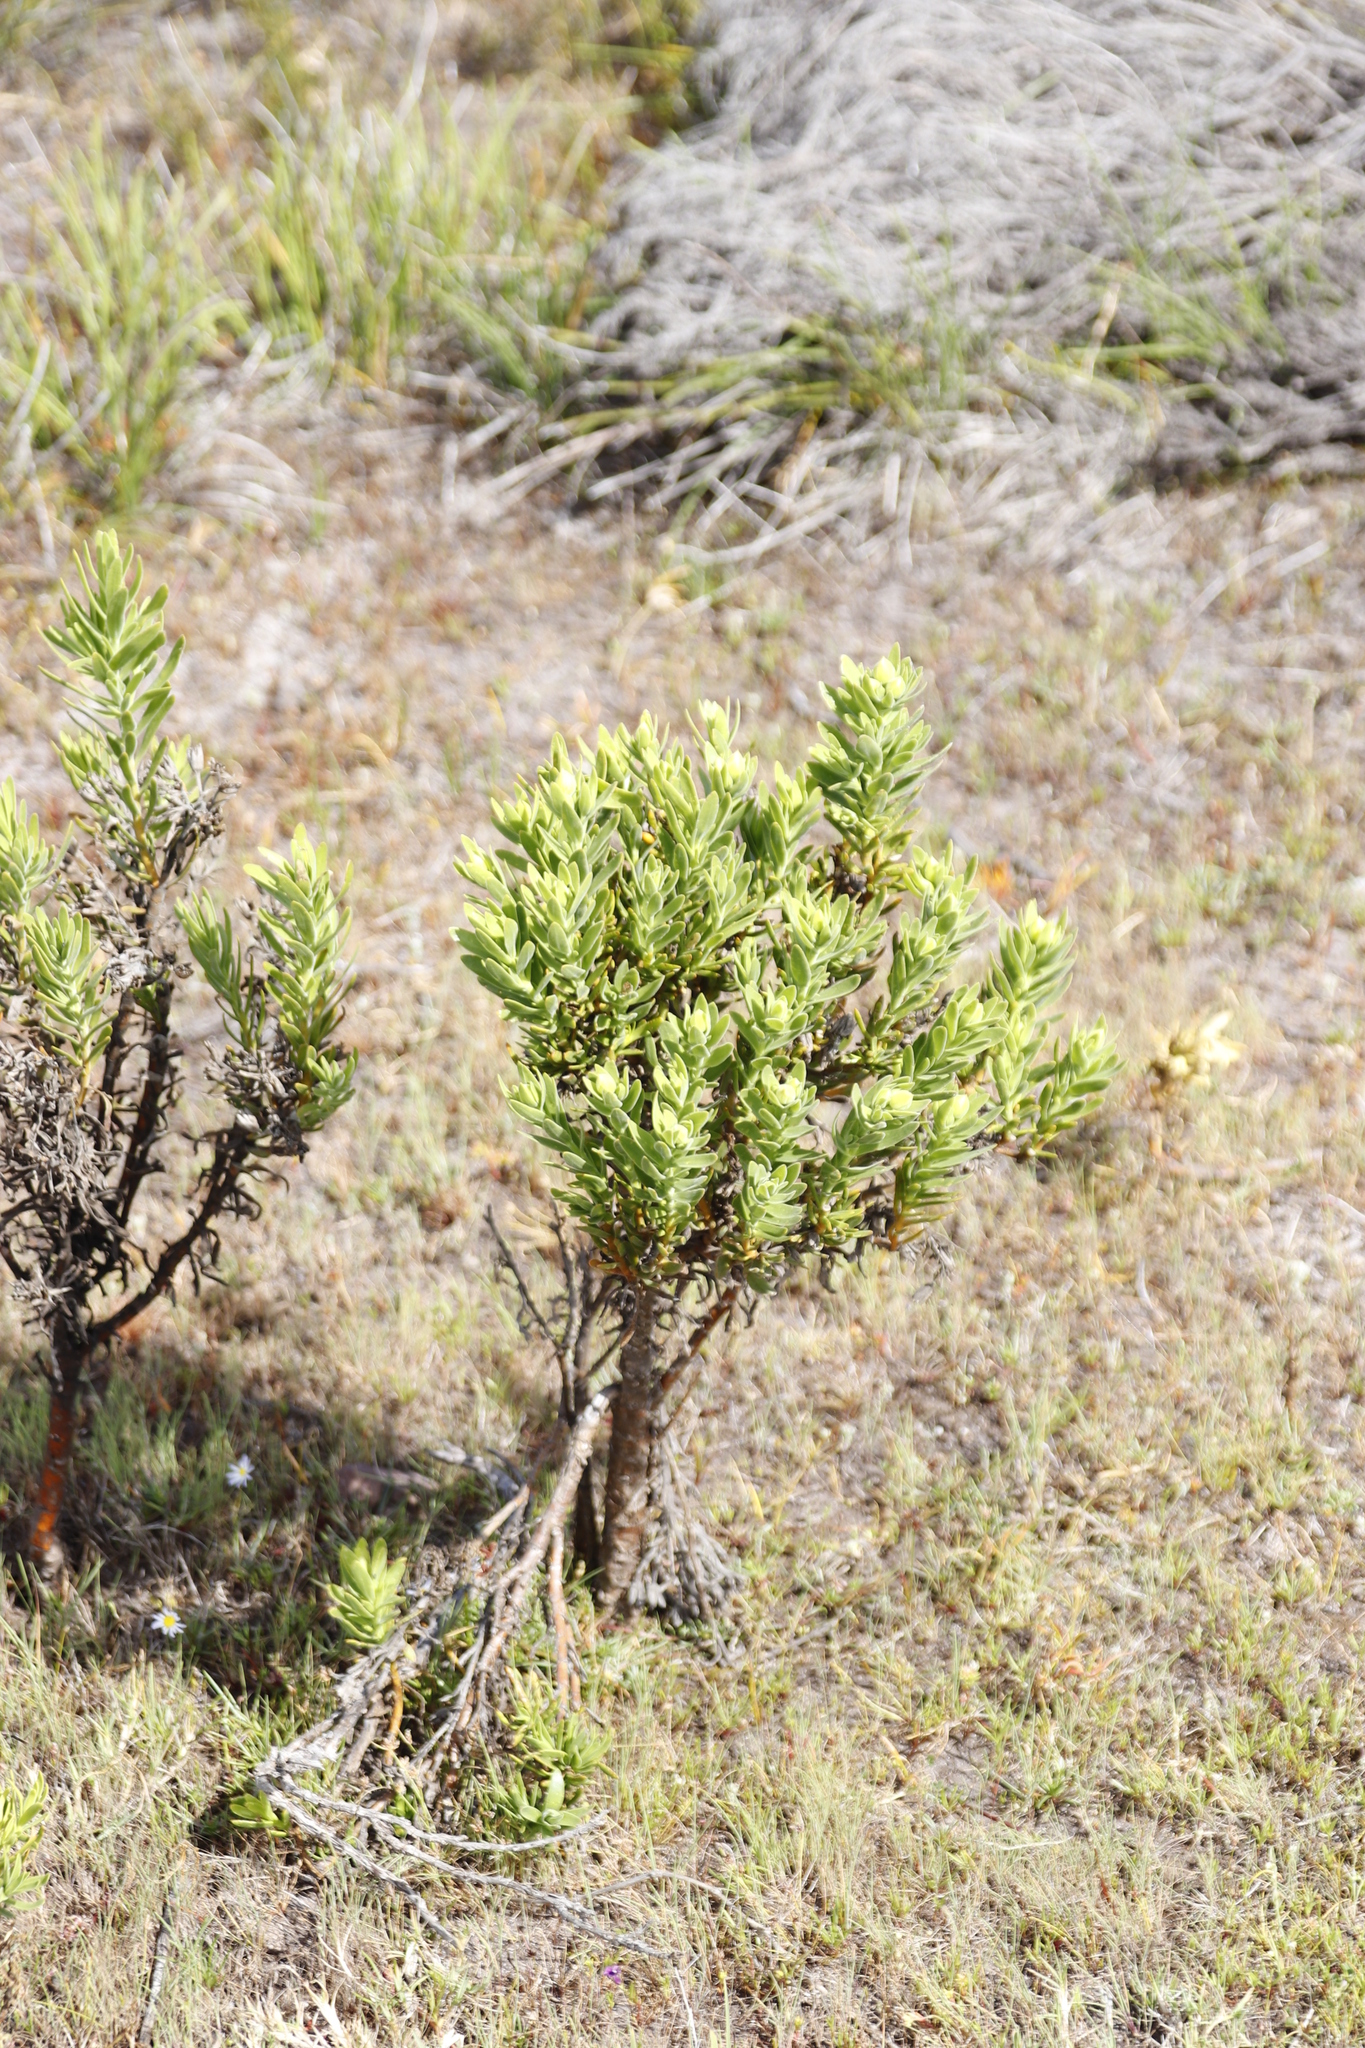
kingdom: Plantae
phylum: Tracheophyta
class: Magnoliopsida
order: Gentianales
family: Gentianaceae
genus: Orphium
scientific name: Orphium frutescens
